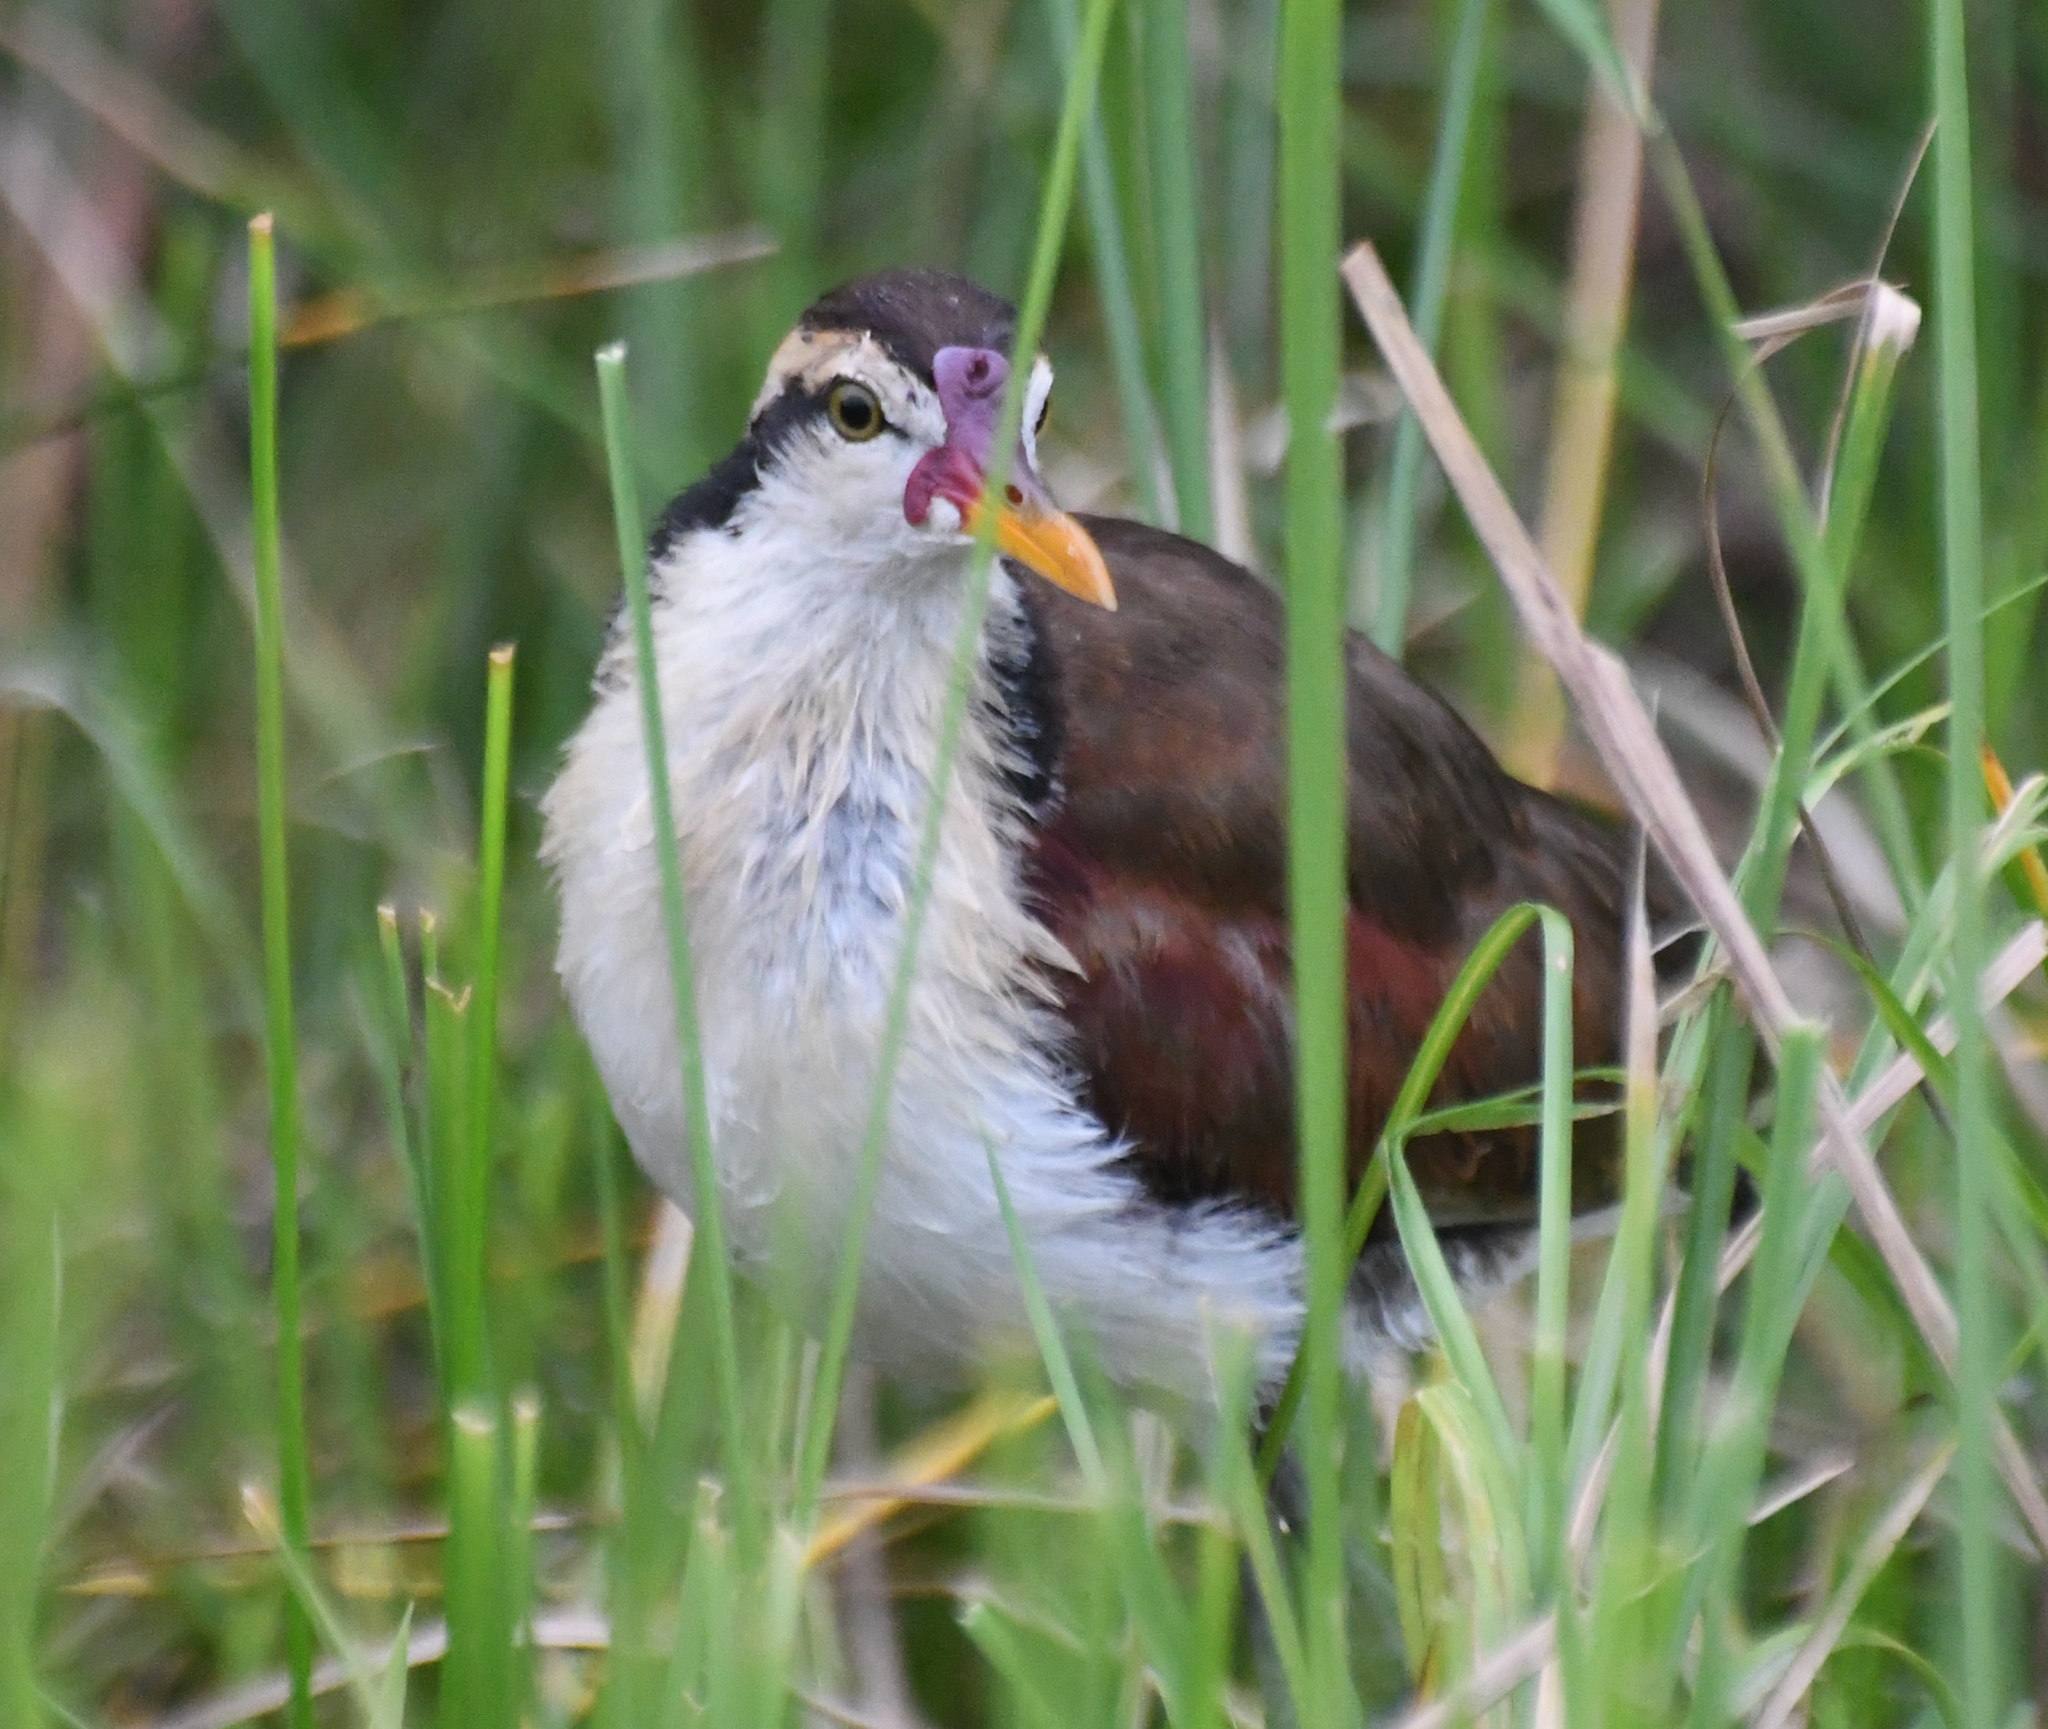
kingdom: Animalia
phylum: Chordata
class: Aves
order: Charadriiformes
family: Jacanidae
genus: Jacana
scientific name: Jacana jacana
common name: Wattled jacana
